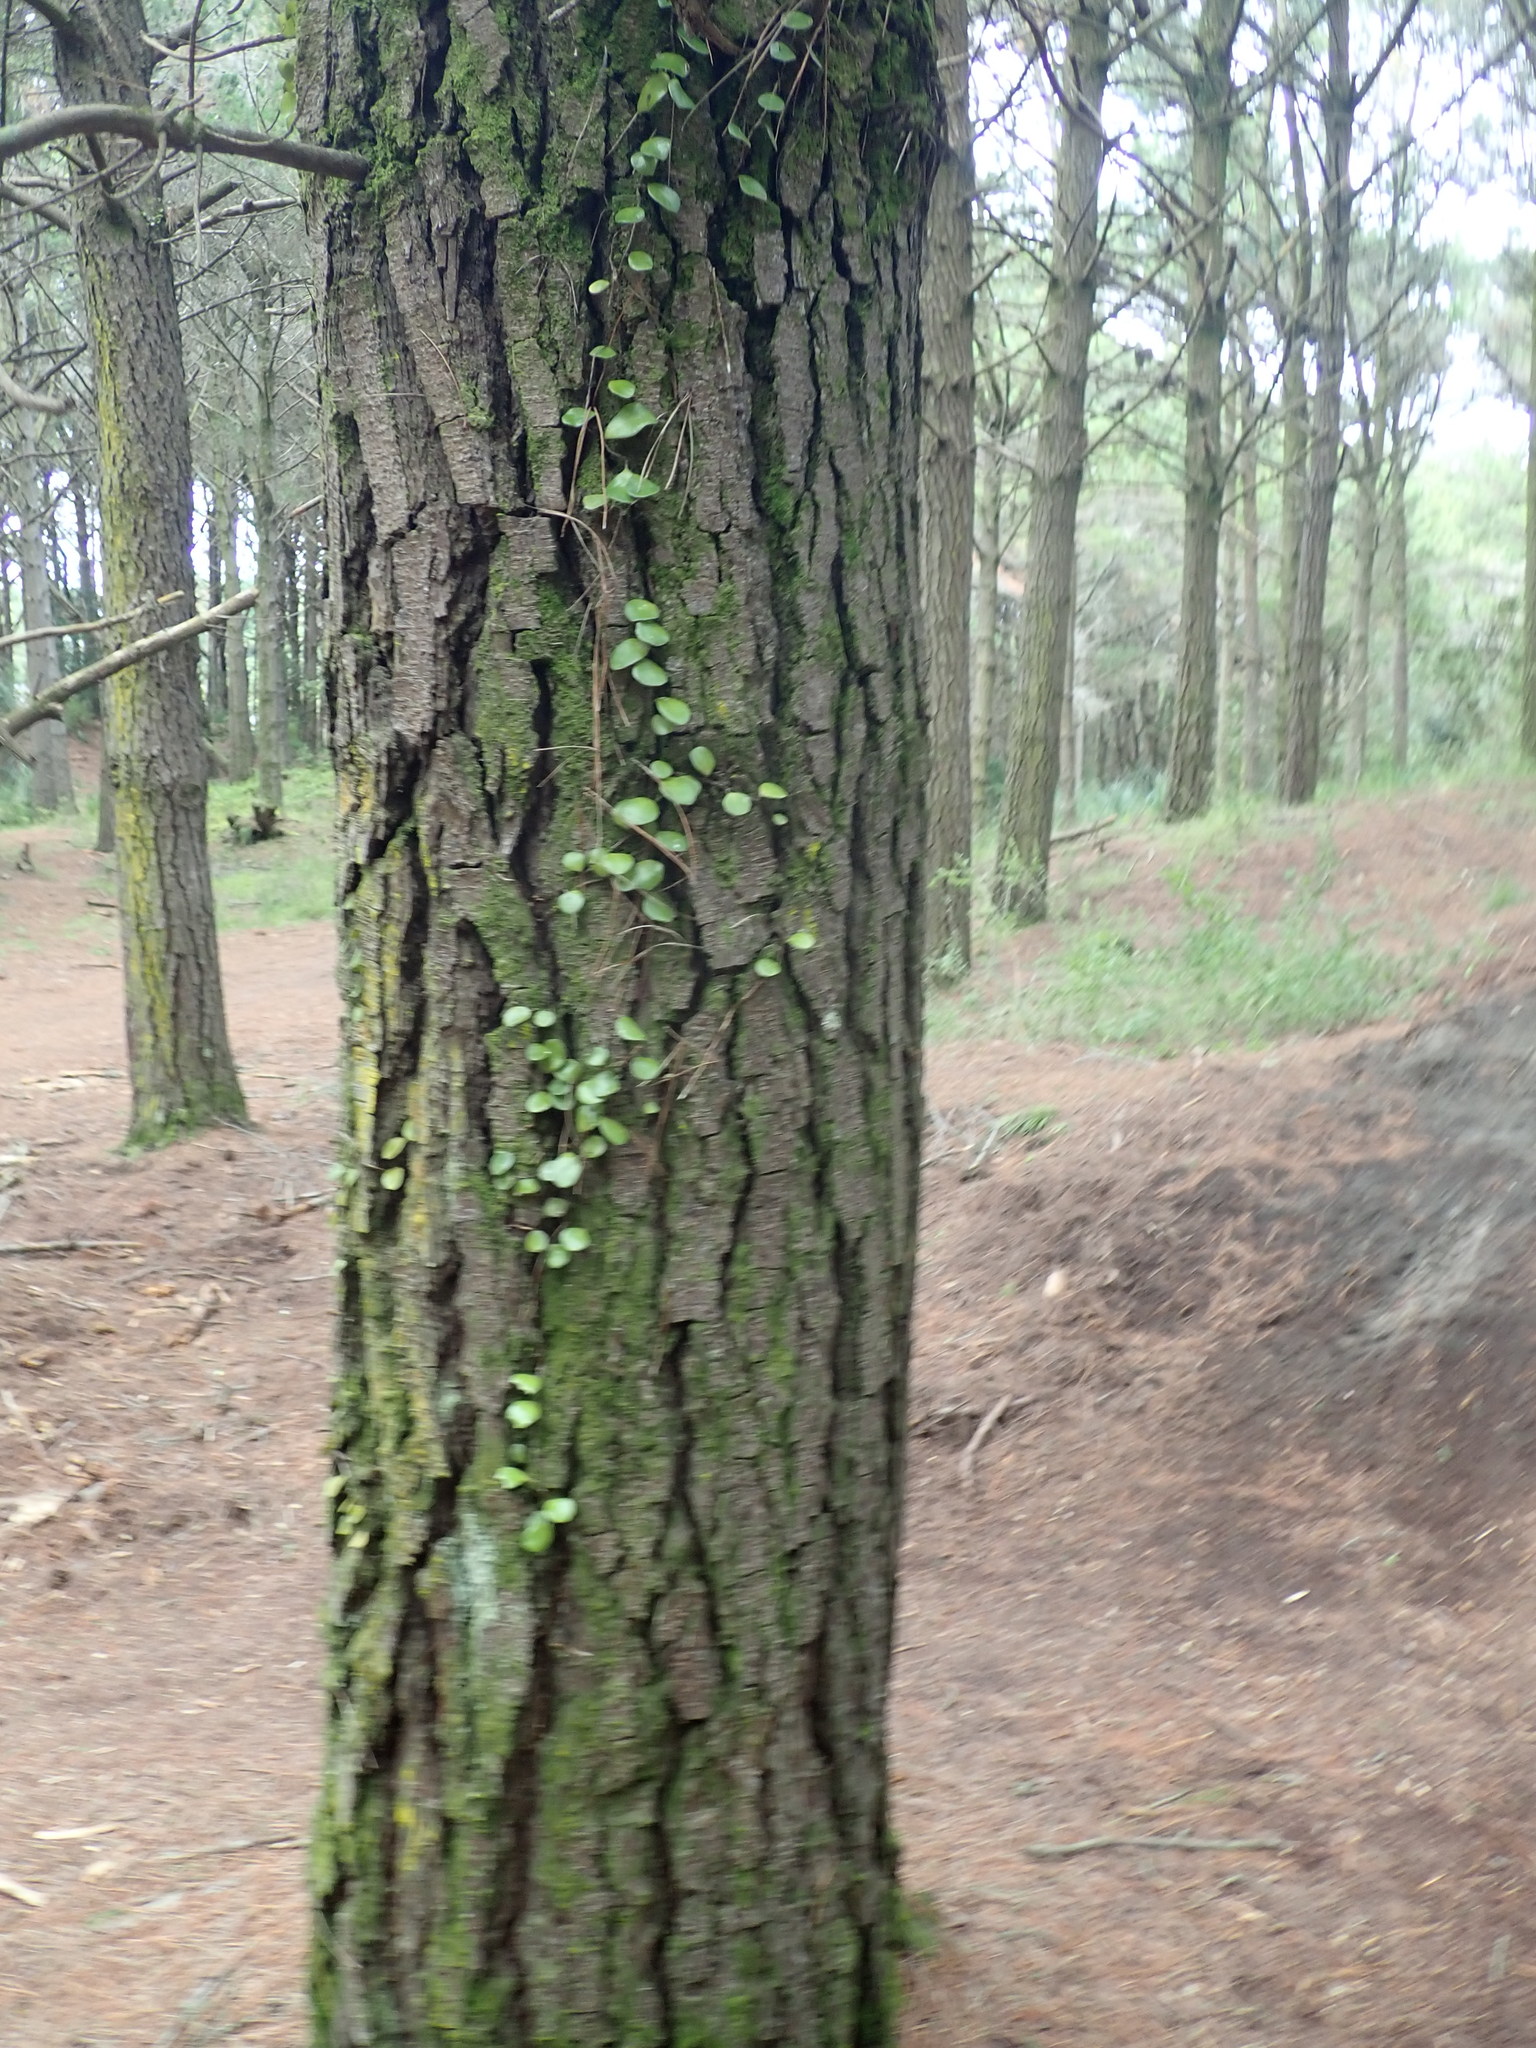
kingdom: Plantae
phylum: Tracheophyta
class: Polypodiopsida
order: Polypodiales
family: Polypodiaceae
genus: Pyrrosia
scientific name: Pyrrosia eleagnifolia
